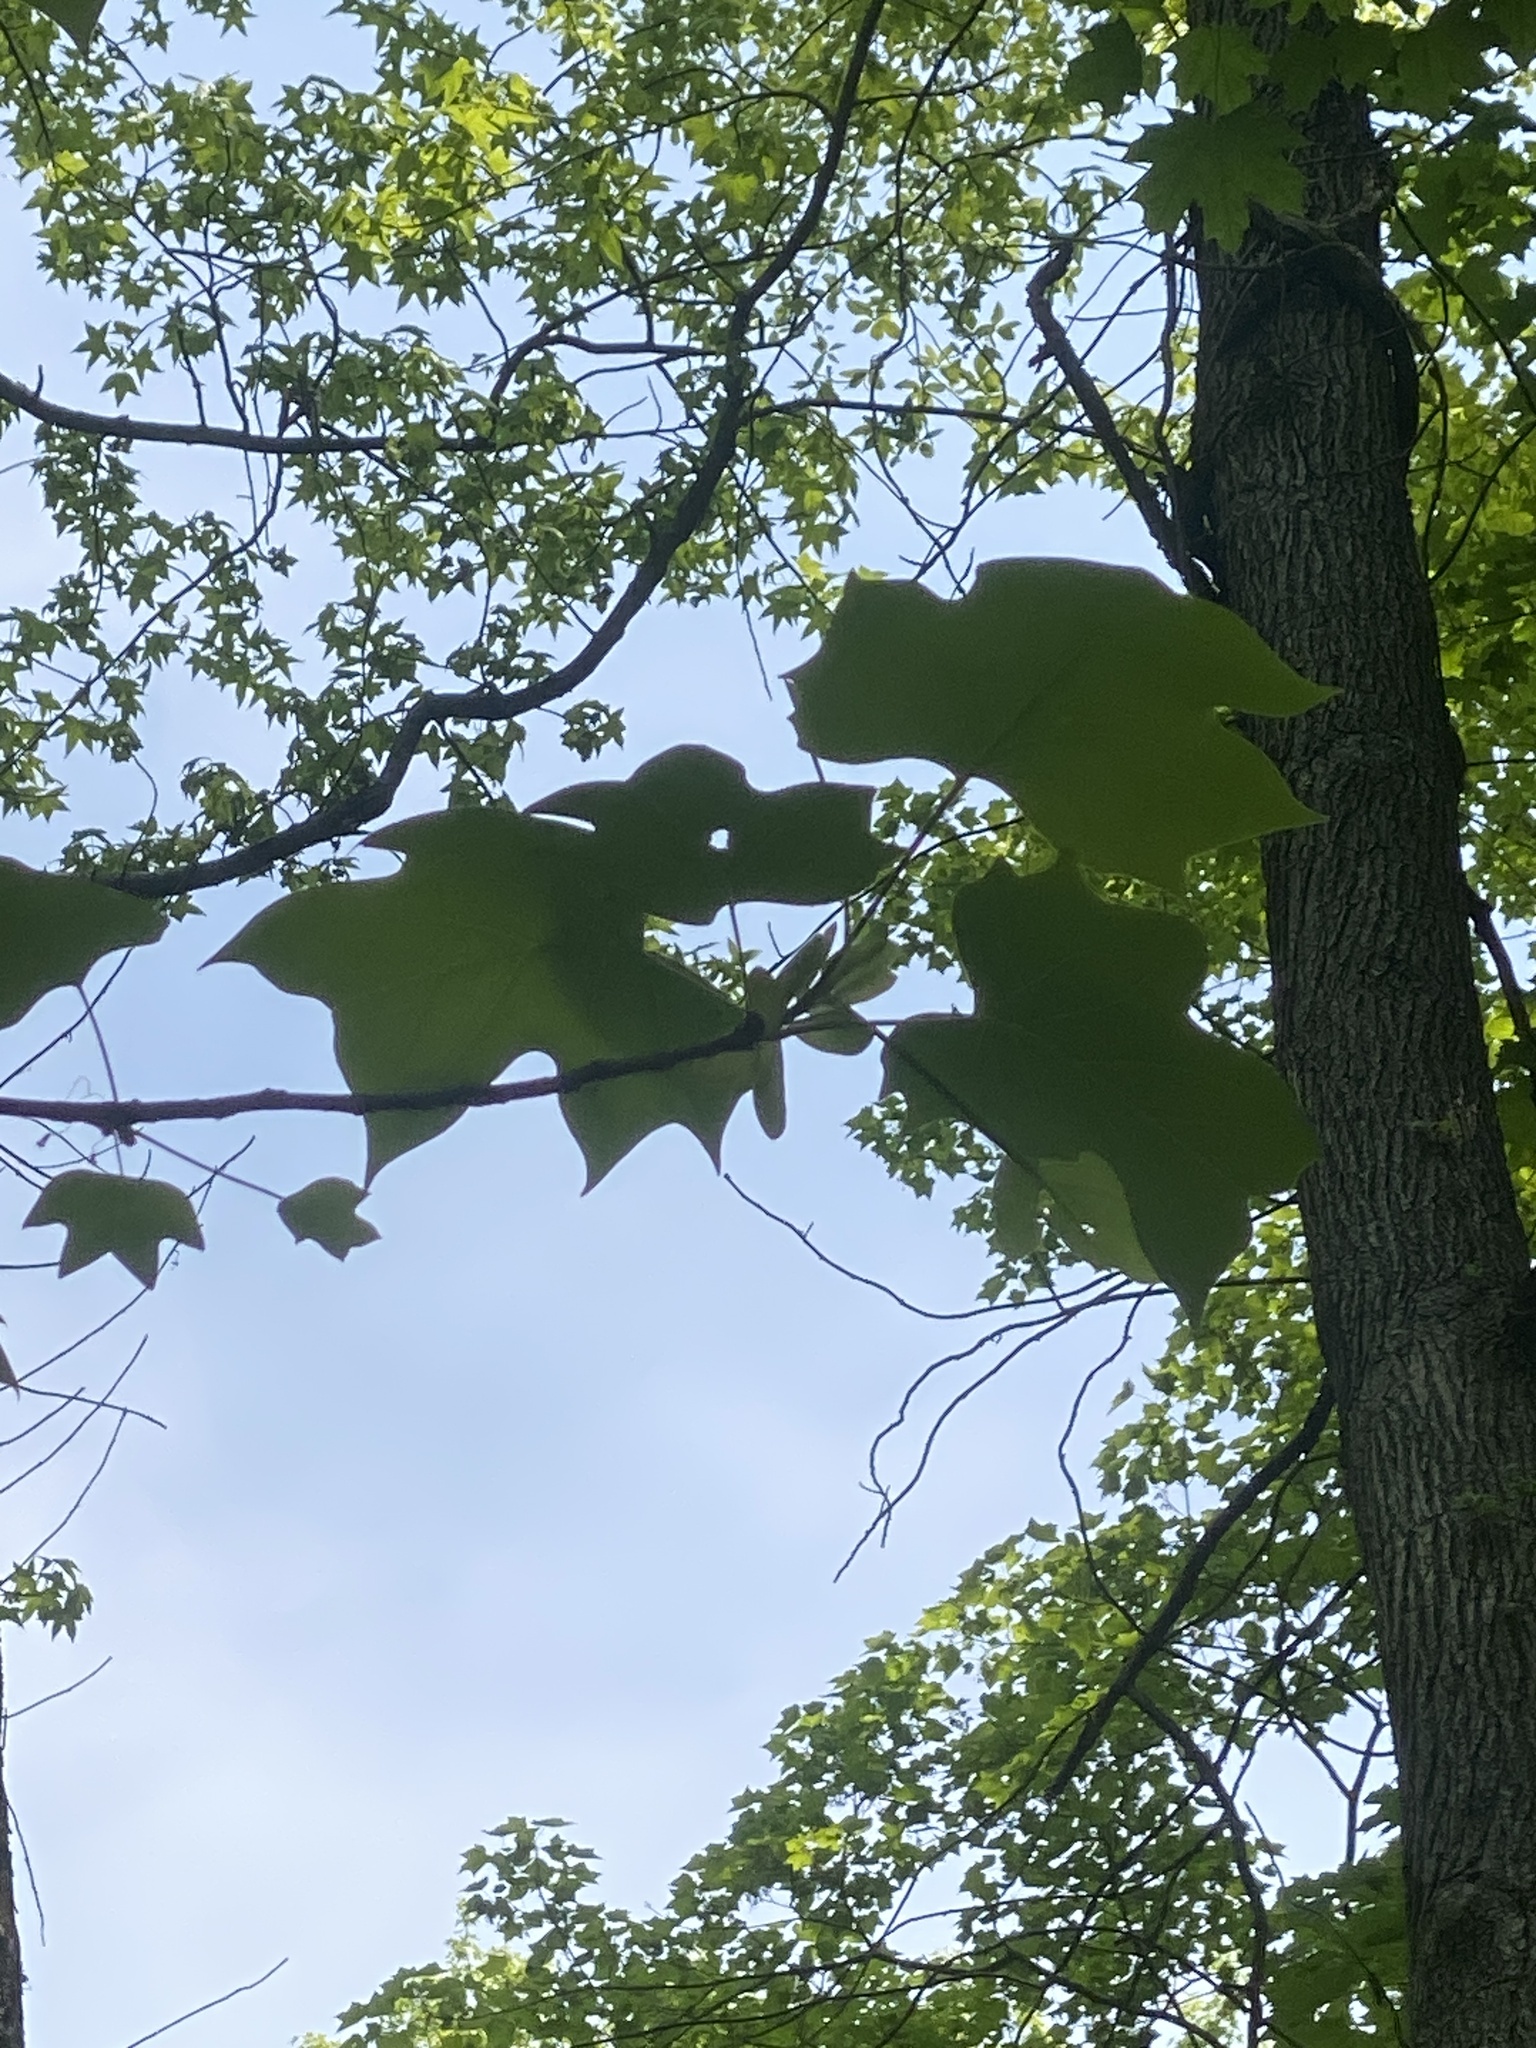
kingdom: Plantae
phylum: Tracheophyta
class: Magnoliopsida
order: Magnoliales
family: Magnoliaceae
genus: Liriodendron
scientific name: Liriodendron tulipifera
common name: Tulip tree
